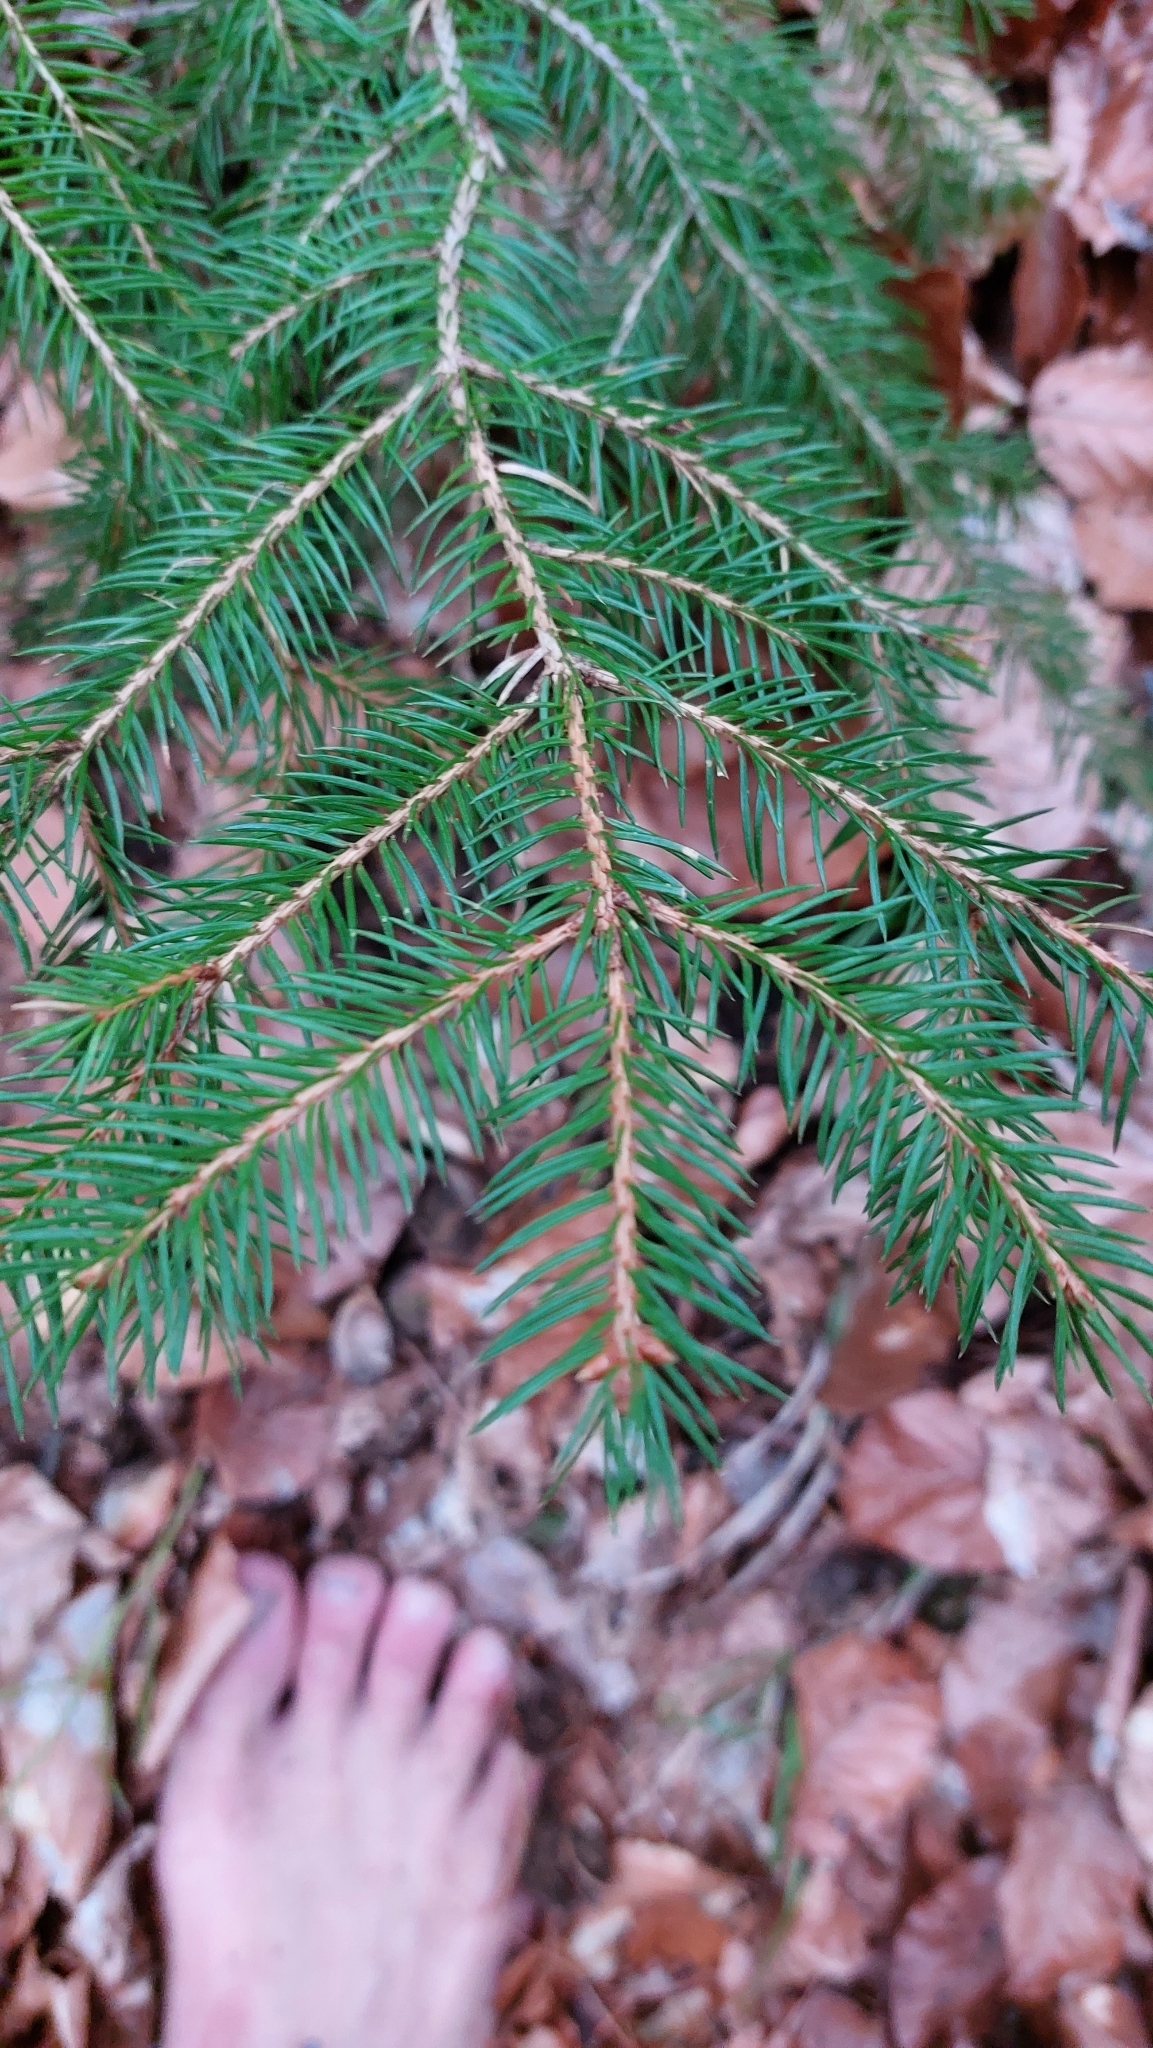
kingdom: Plantae
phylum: Tracheophyta
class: Pinopsida
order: Pinales
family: Pinaceae
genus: Picea
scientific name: Picea abies
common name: Norway spruce
